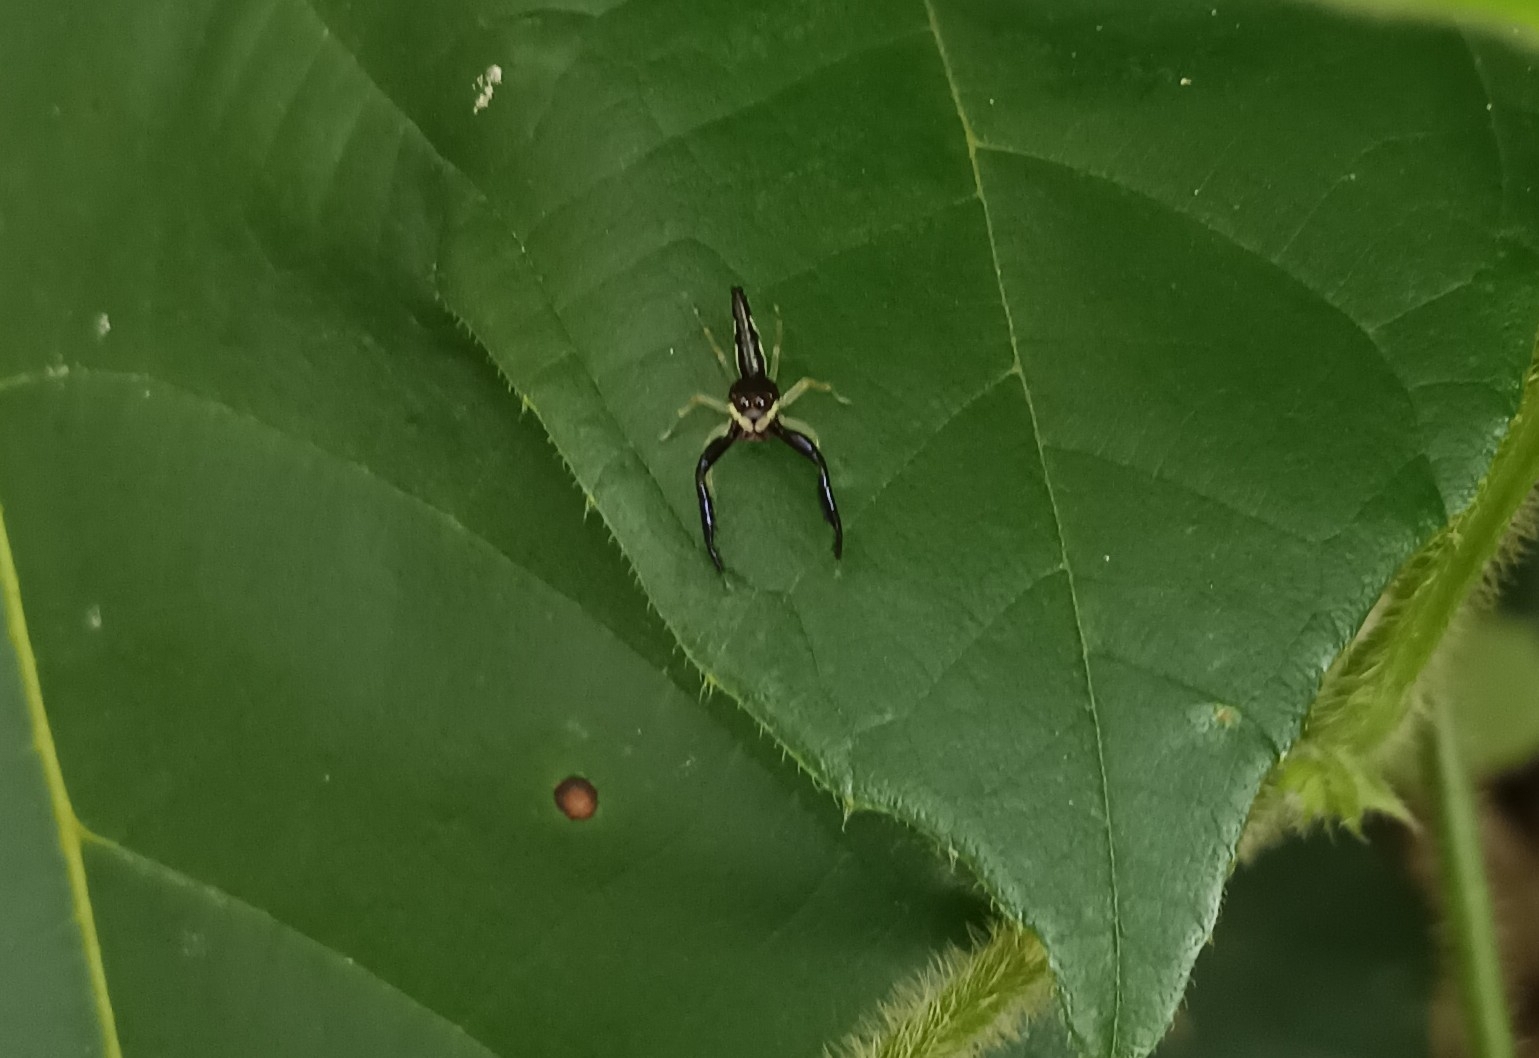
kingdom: Animalia
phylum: Arthropoda
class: Arachnida
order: Araneae
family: Salticidae
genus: Indopadilla
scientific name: Indopadilla insularis
